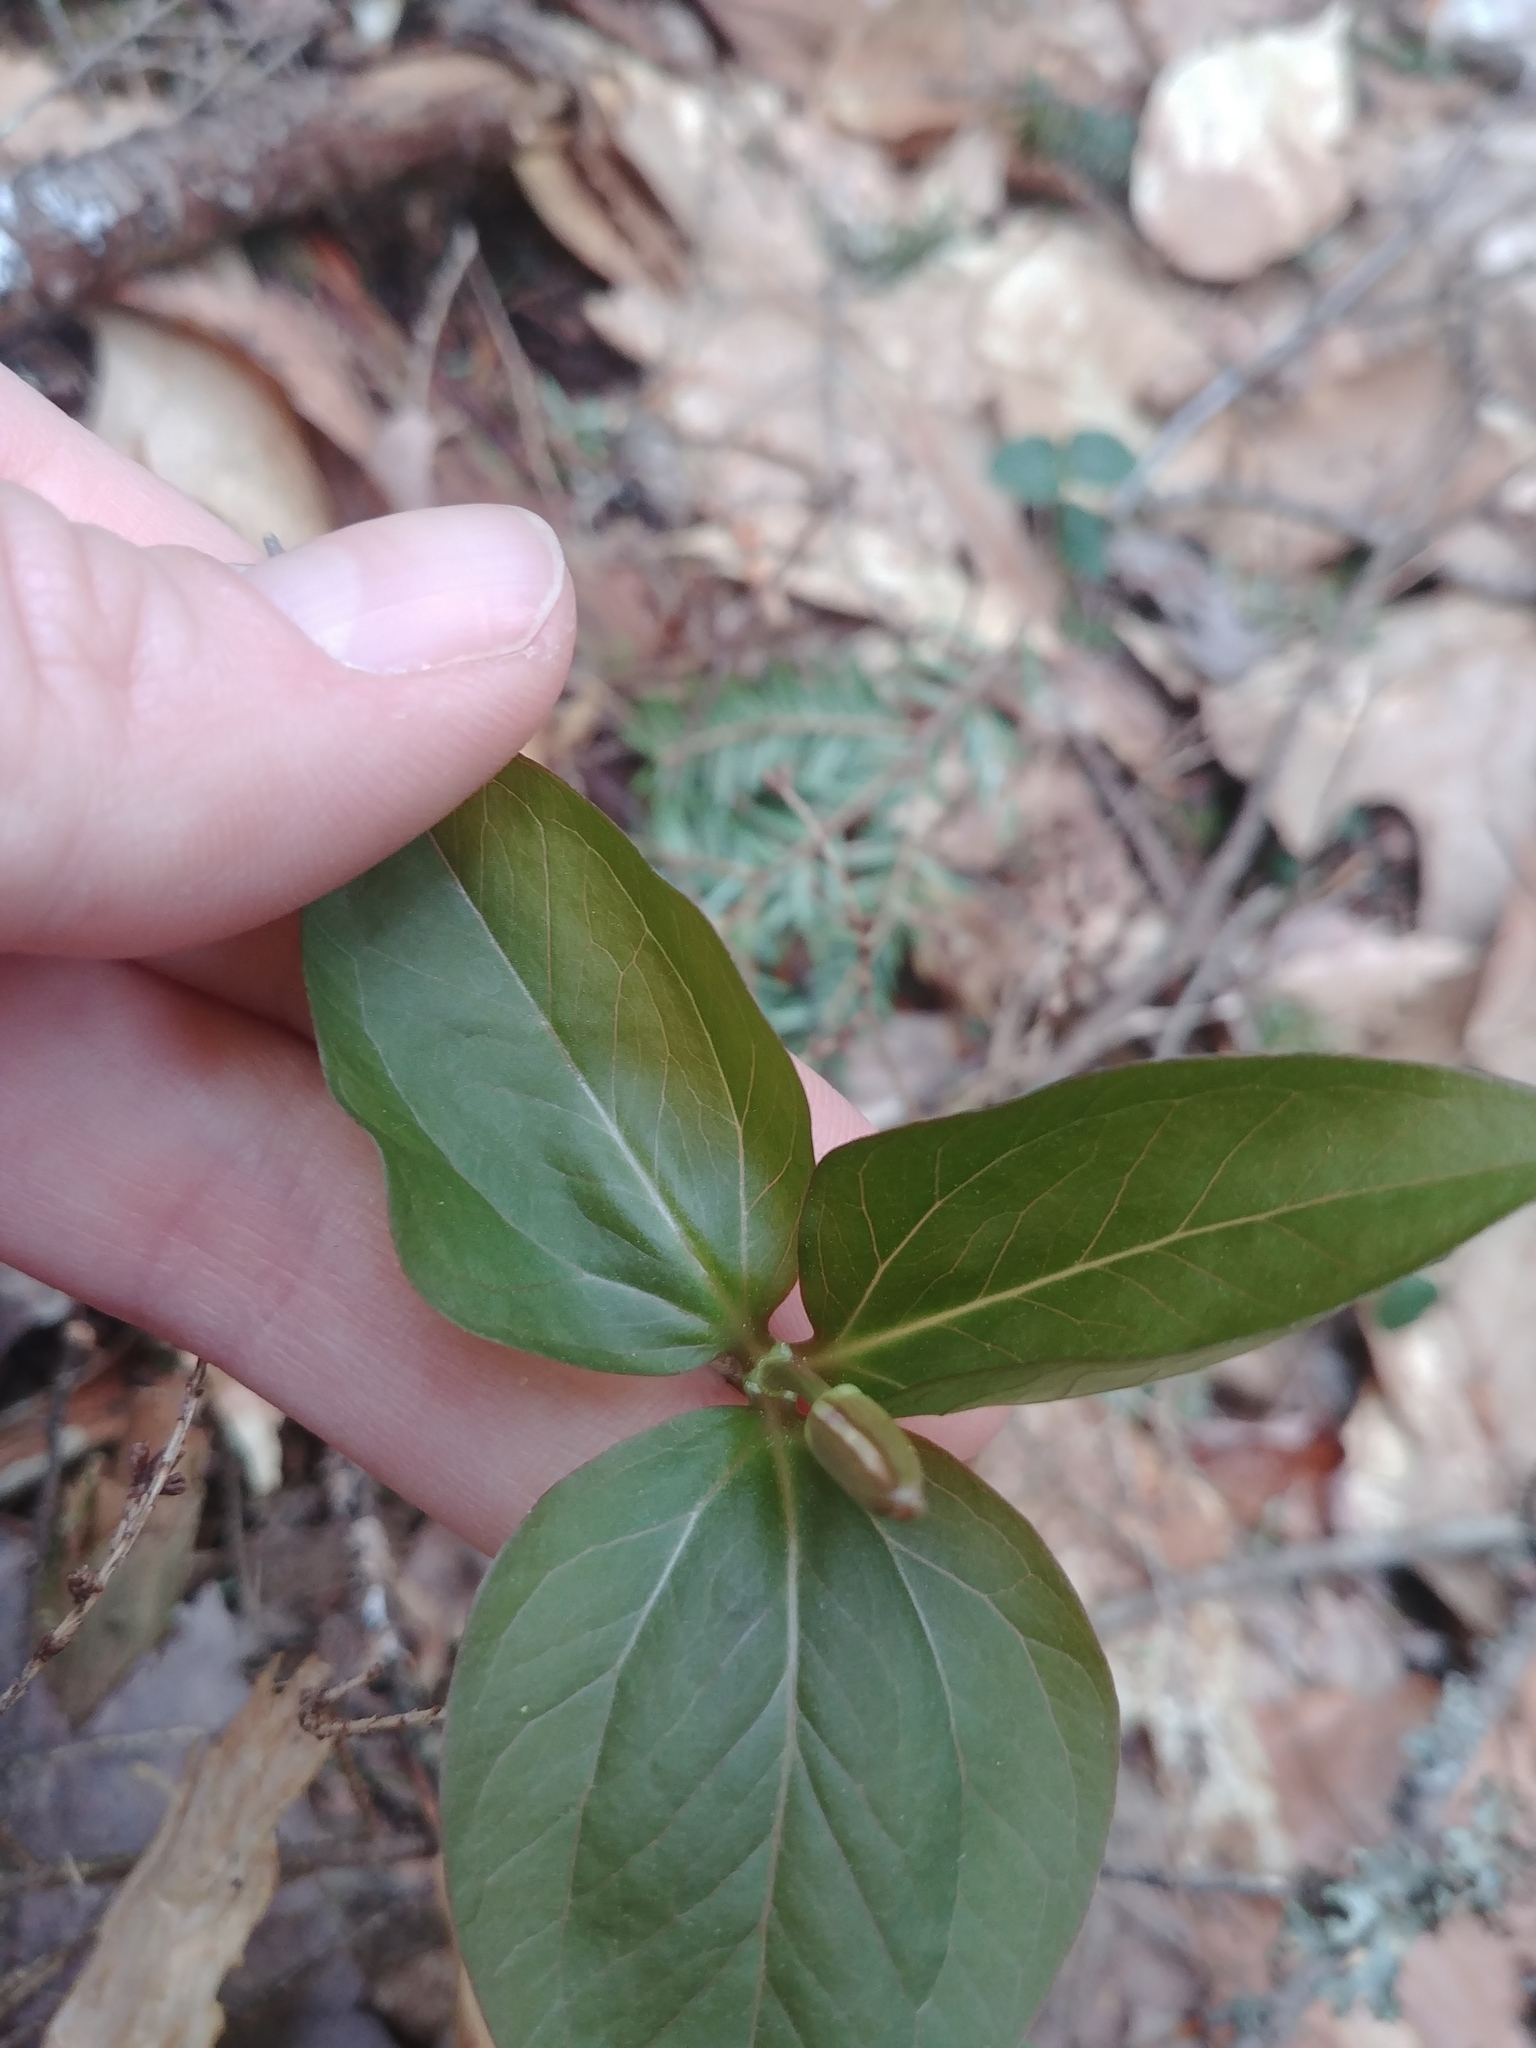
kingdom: Plantae
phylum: Tracheophyta
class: Liliopsida
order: Liliales
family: Melanthiaceae
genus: Trillium
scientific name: Trillium undulatum
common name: Paint trillium
